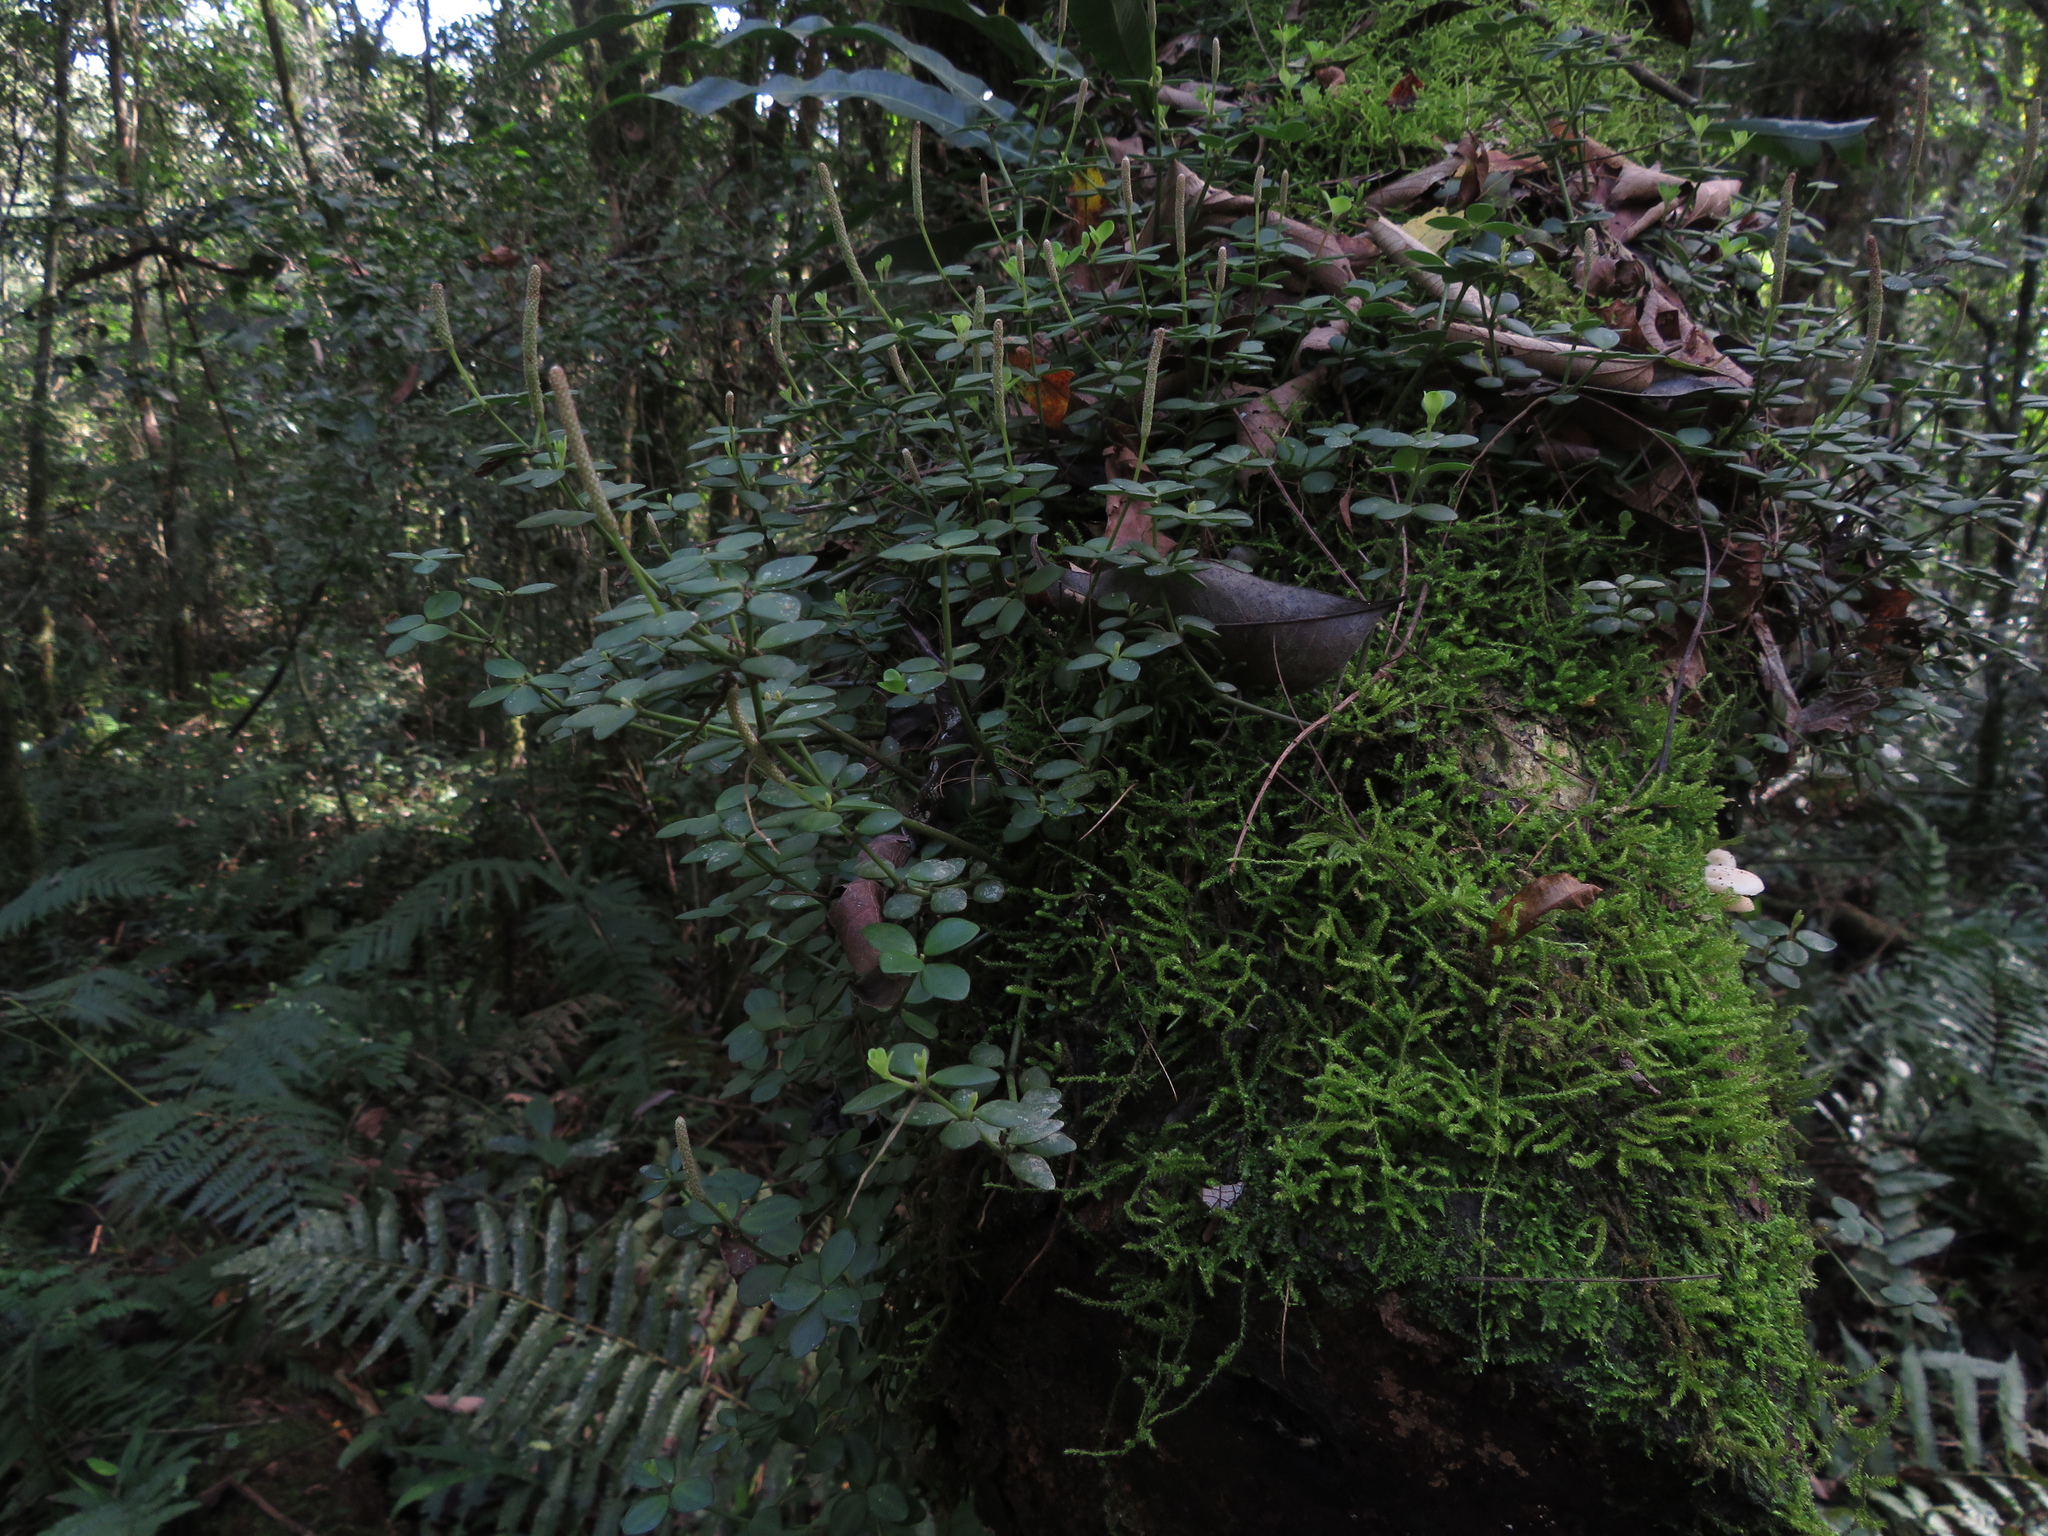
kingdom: Plantae
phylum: Tracheophyta
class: Magnoliopsida
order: Piperales
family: Piperaceae
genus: Peperomia
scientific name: Peperomia tetraphylla
